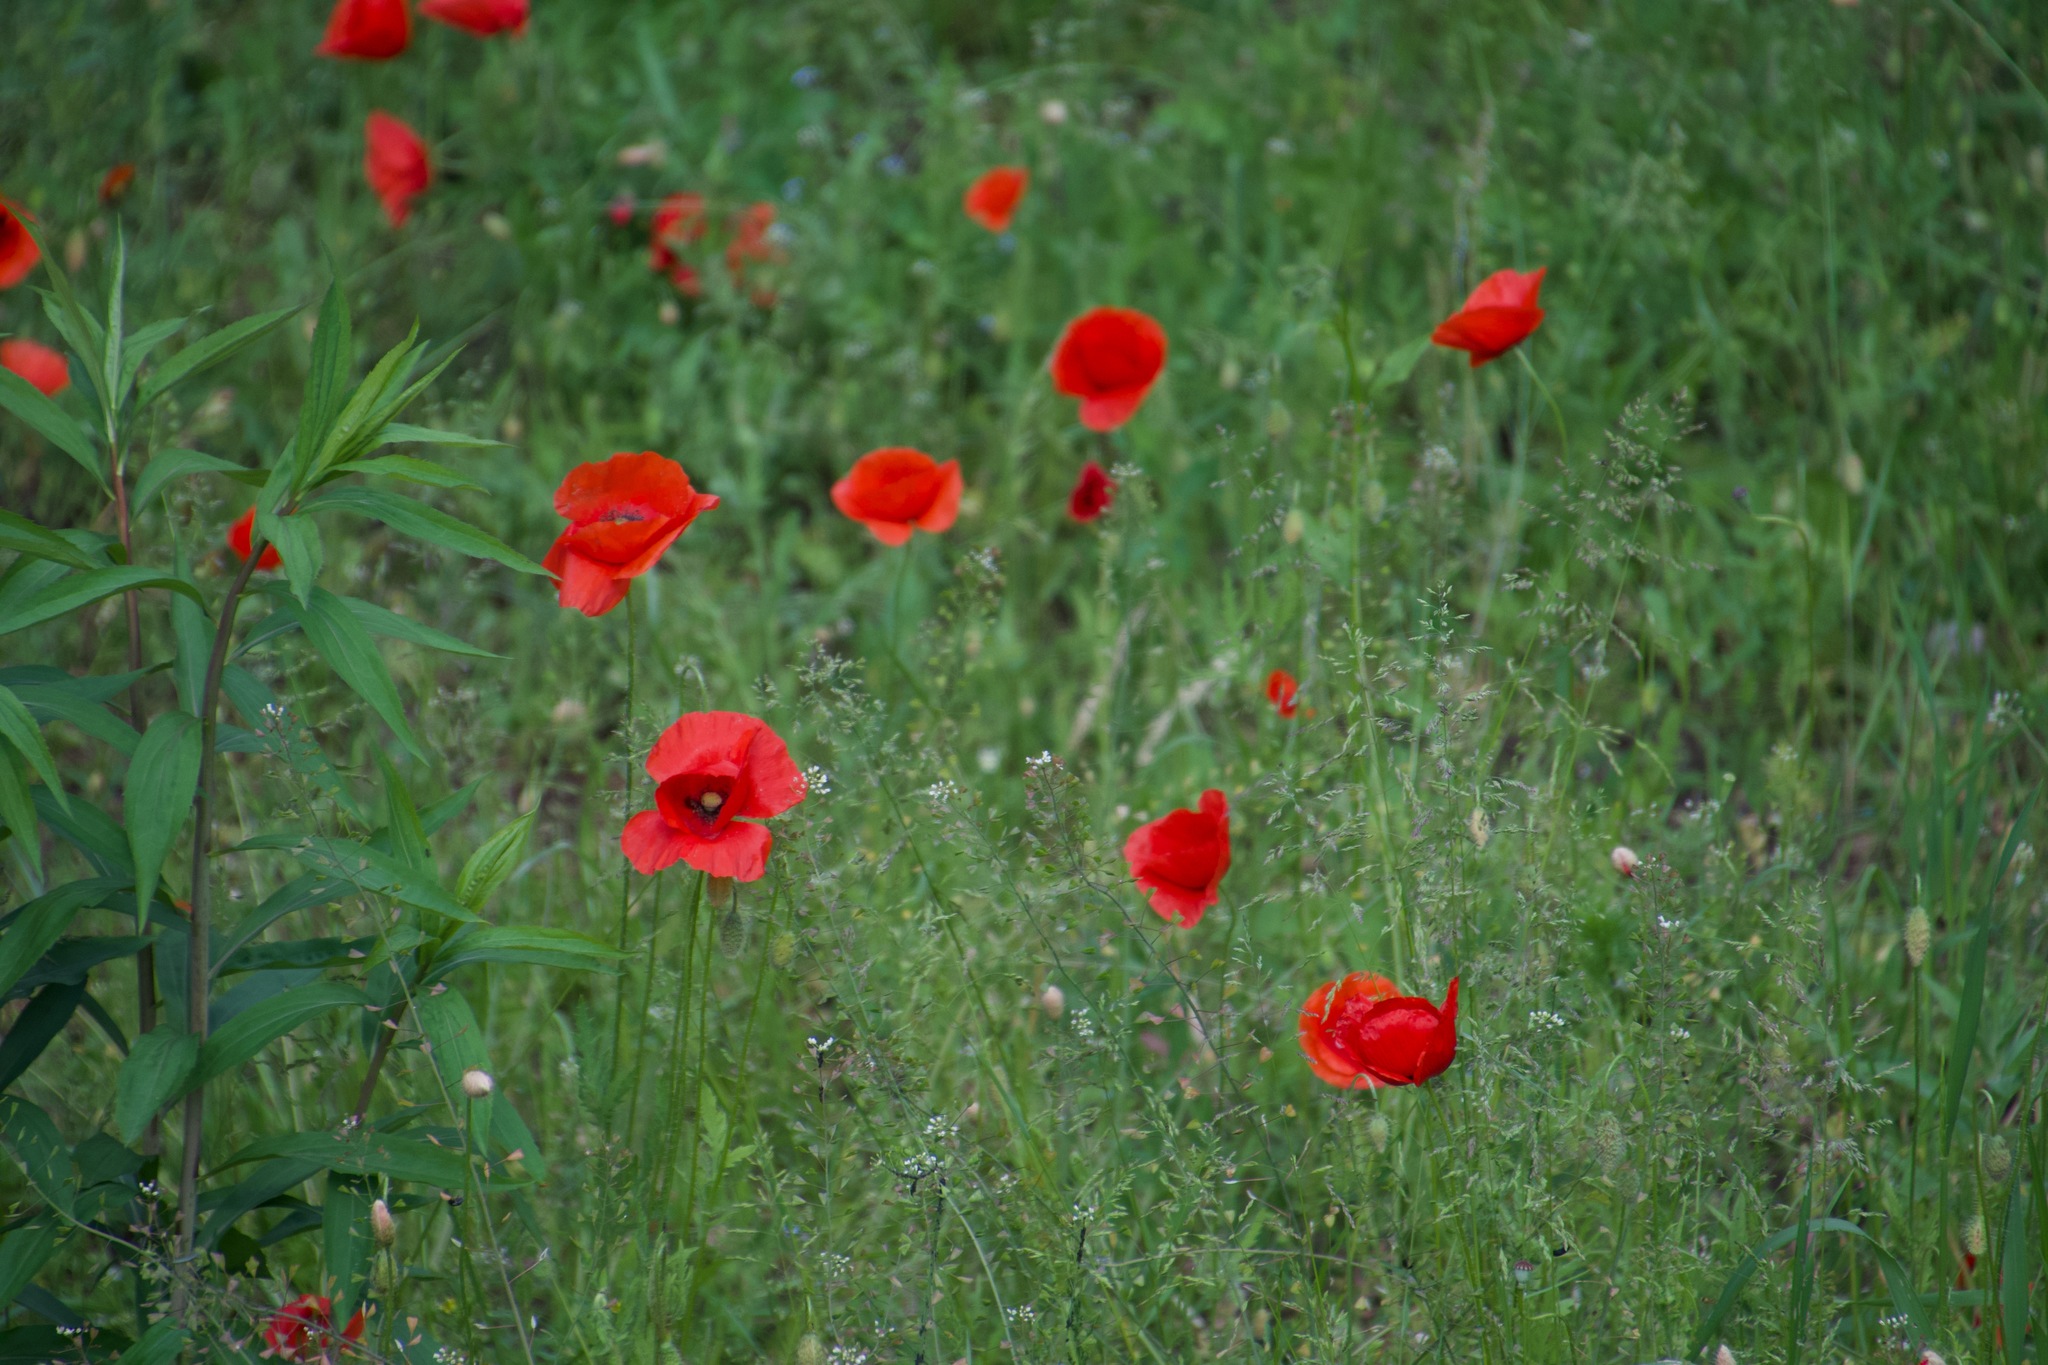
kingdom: Plantae
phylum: Tracheophyta
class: Magnoliopsida
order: Ranunculales
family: Papaveraceae
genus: Papaver
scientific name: Papaver rhoeas
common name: Corn poppy
